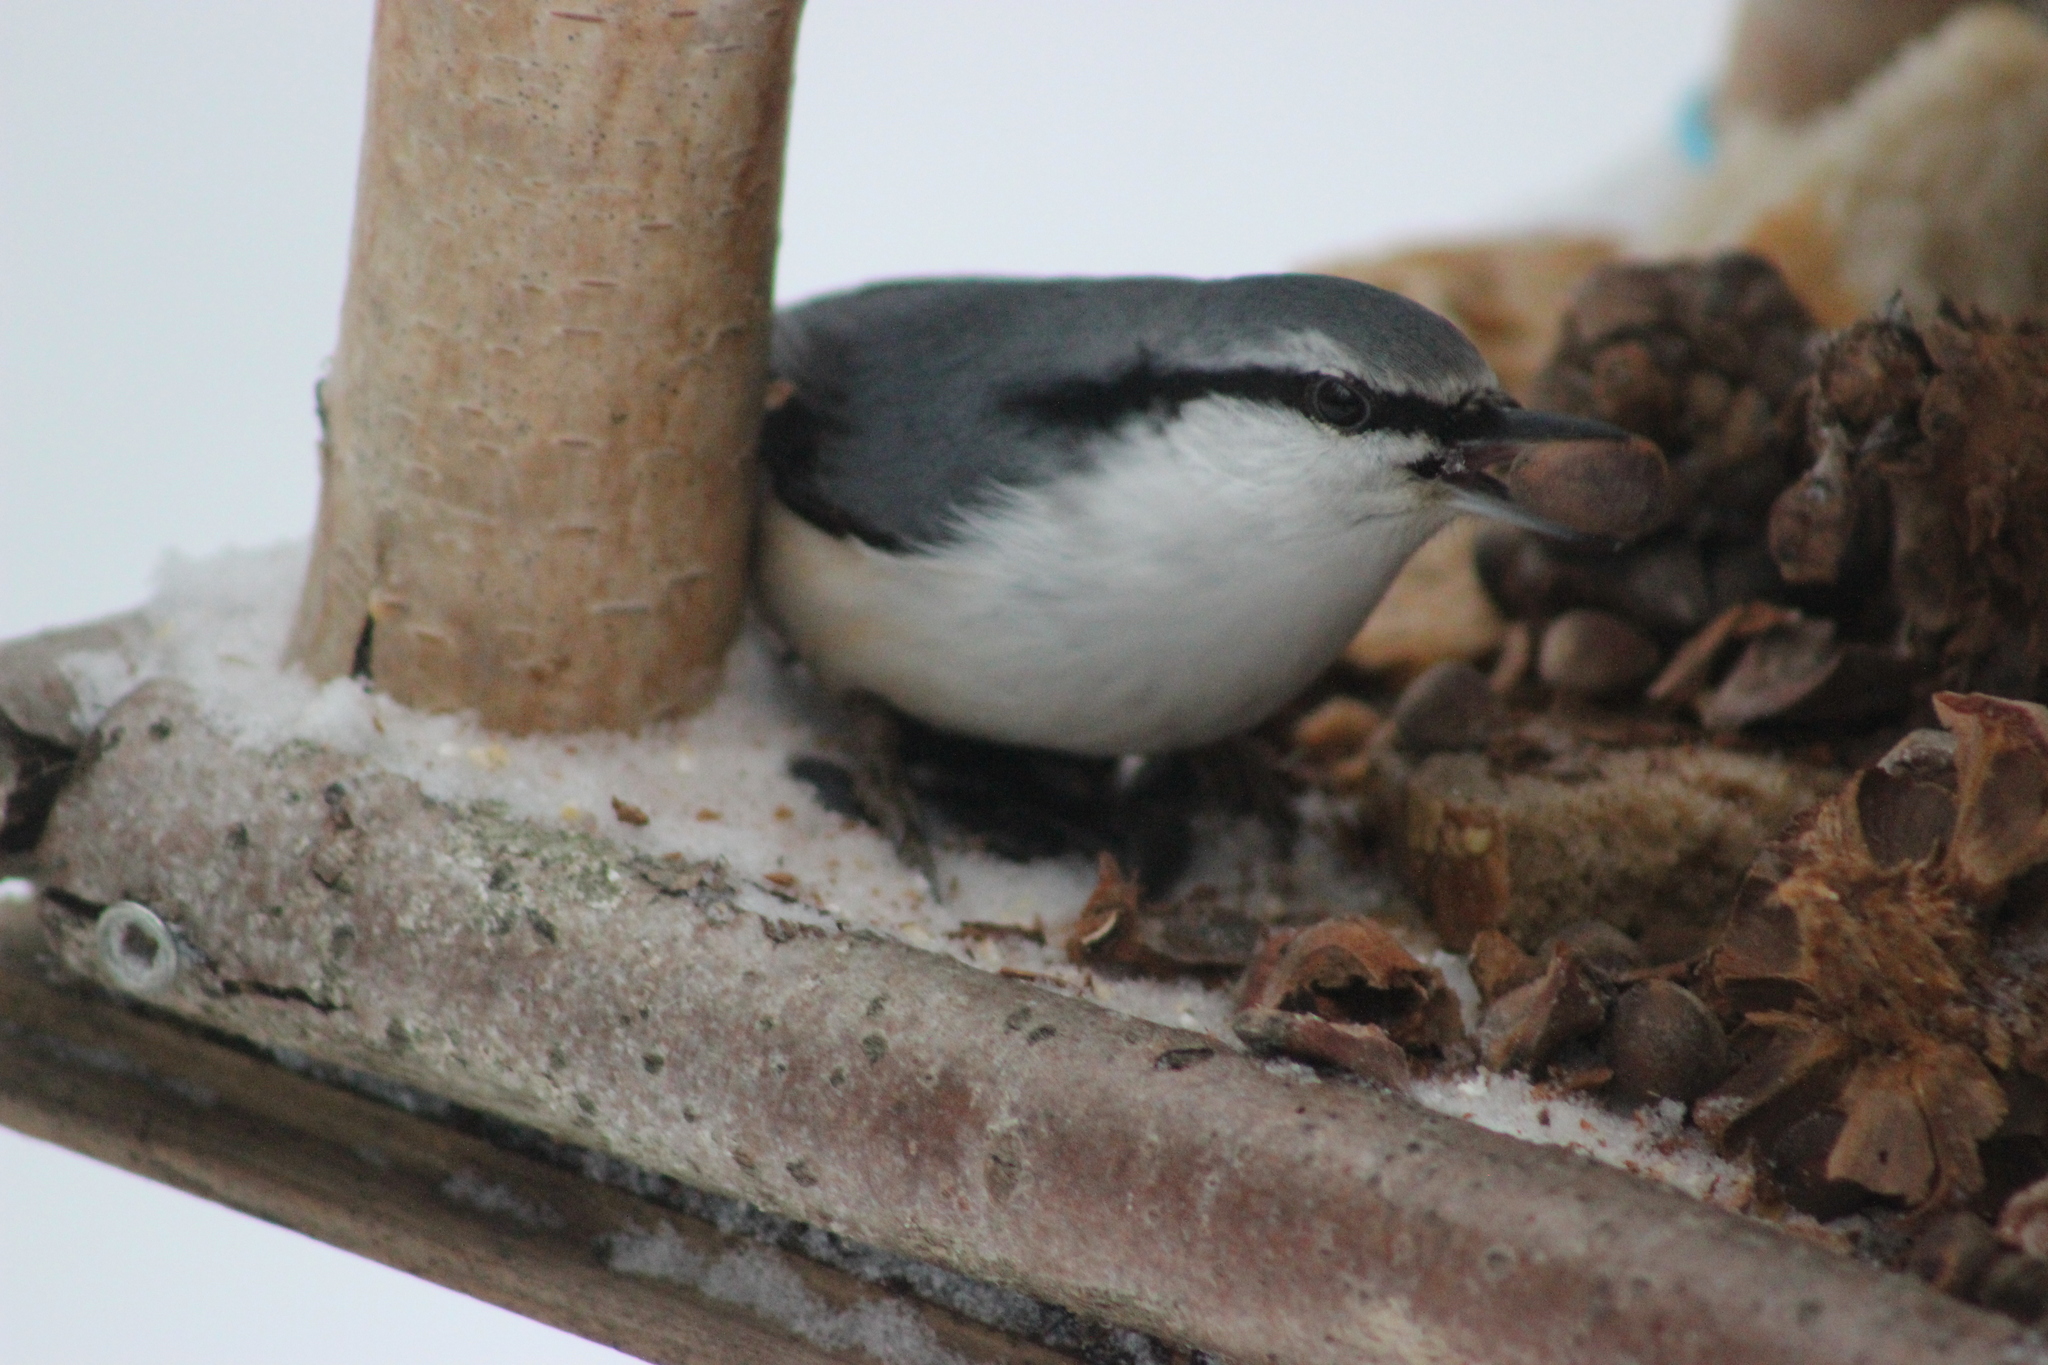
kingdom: Animalia
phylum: Chordata
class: Aves
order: Passeriformes
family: Sittidae
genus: Sitta
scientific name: Sitta europaea
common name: Eurasian nuthatch
